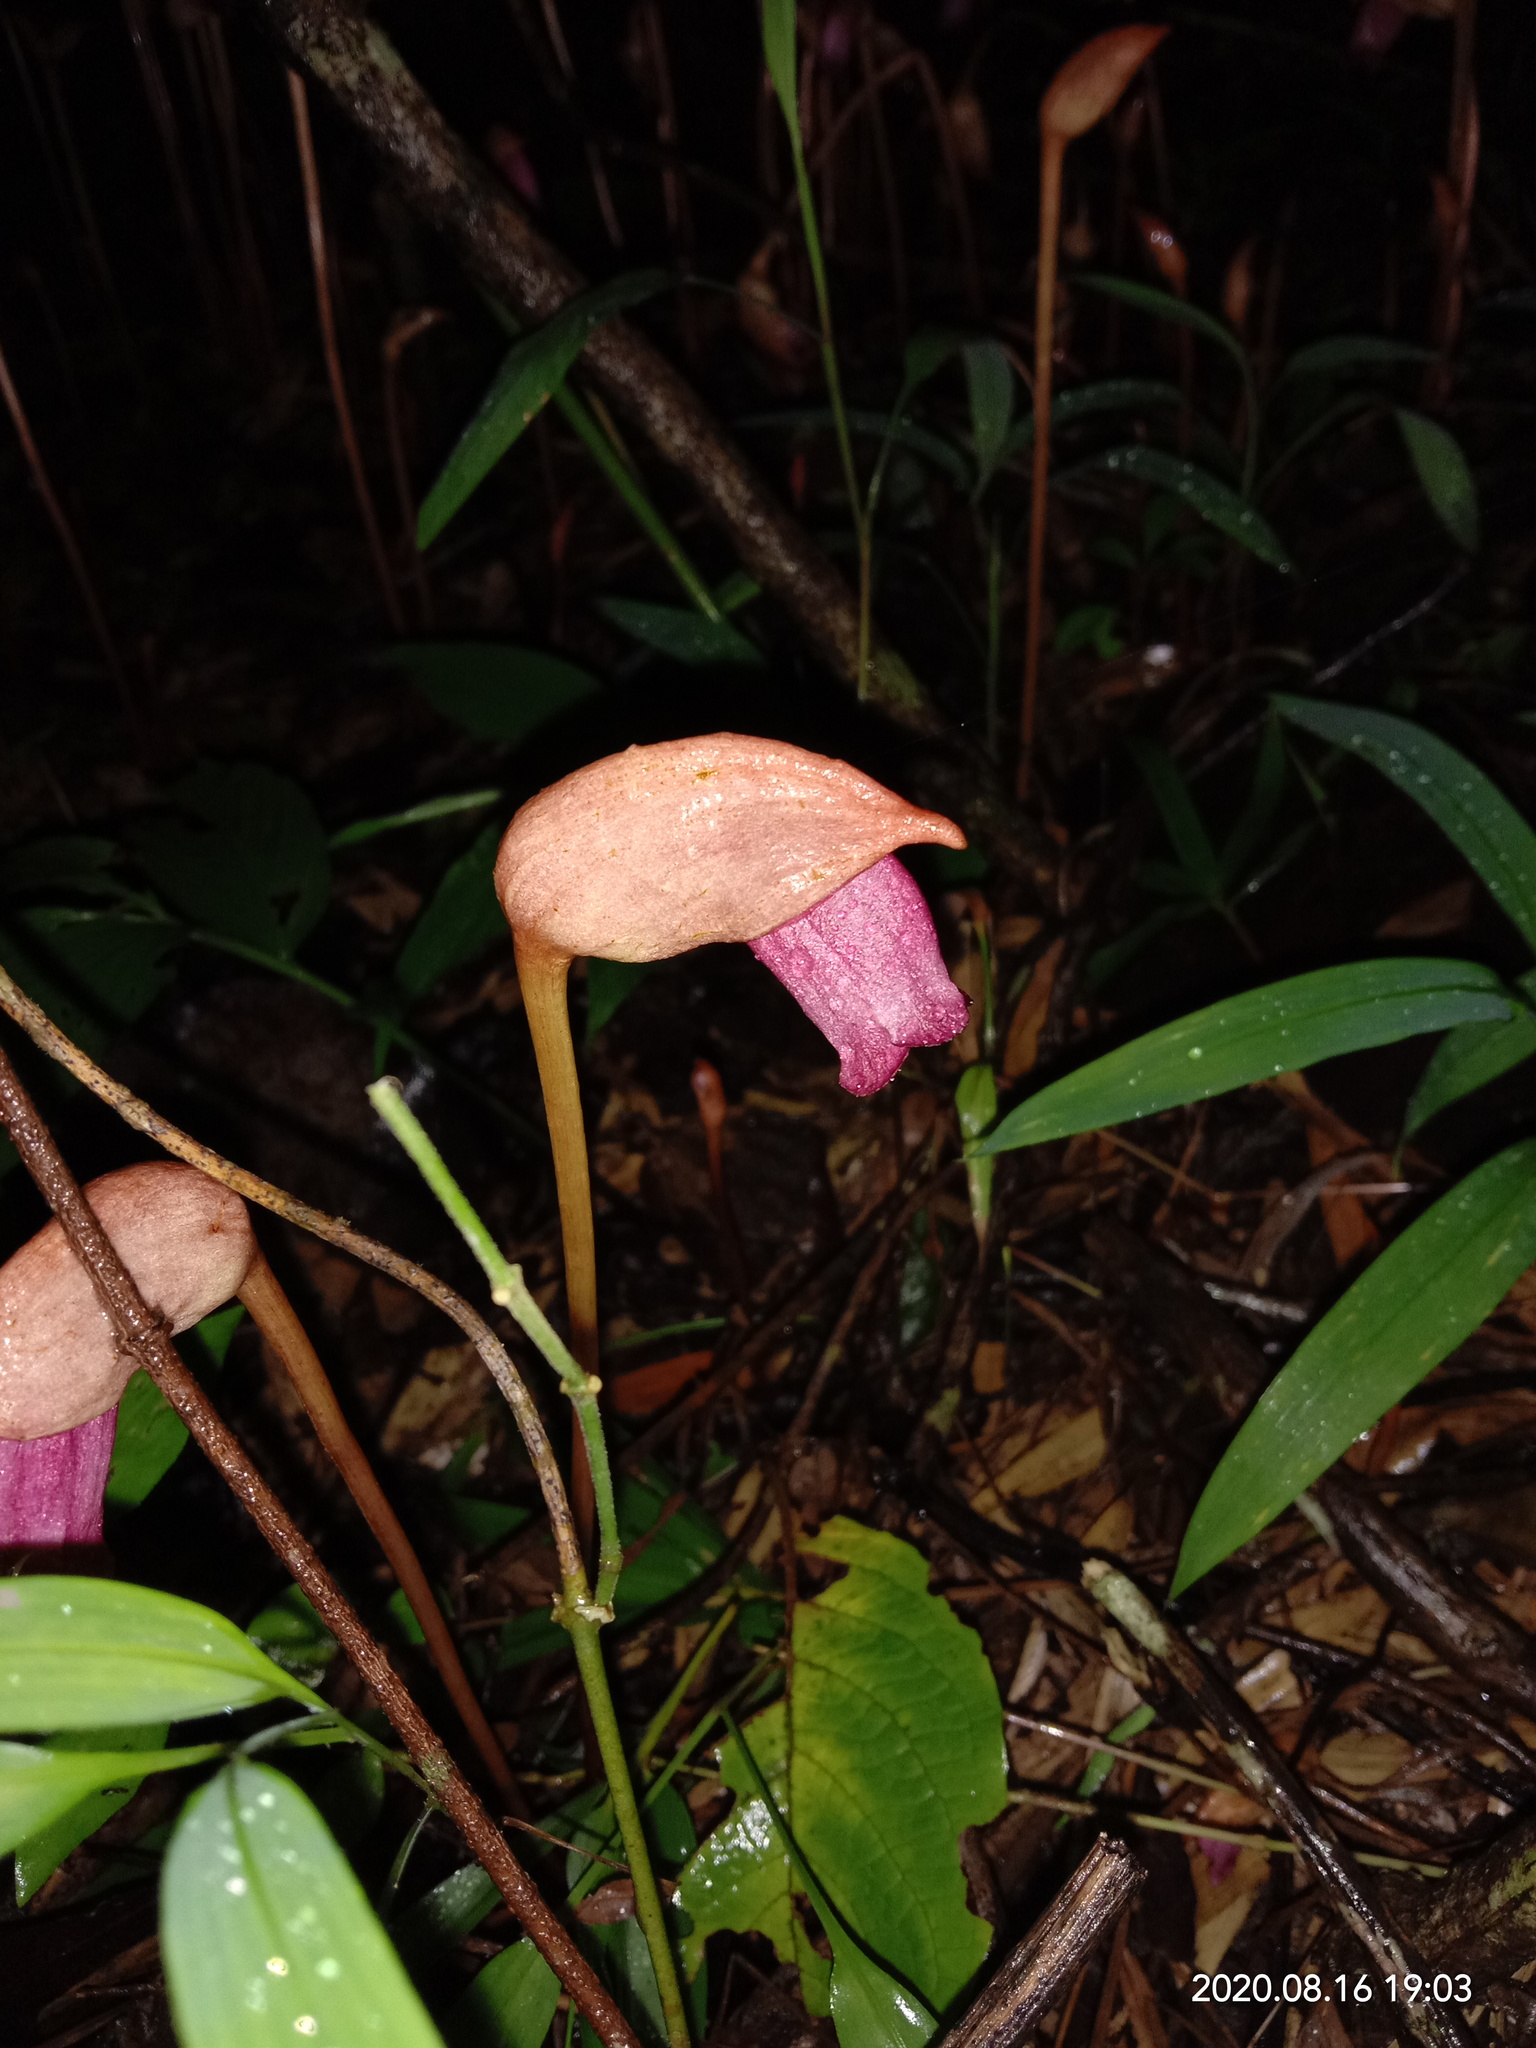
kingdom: Plantae
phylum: Tracheophyta
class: Magnoliopsida
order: Lamiales
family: Orobanchaceae
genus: Aeginetia
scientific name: Aeginetia indica
